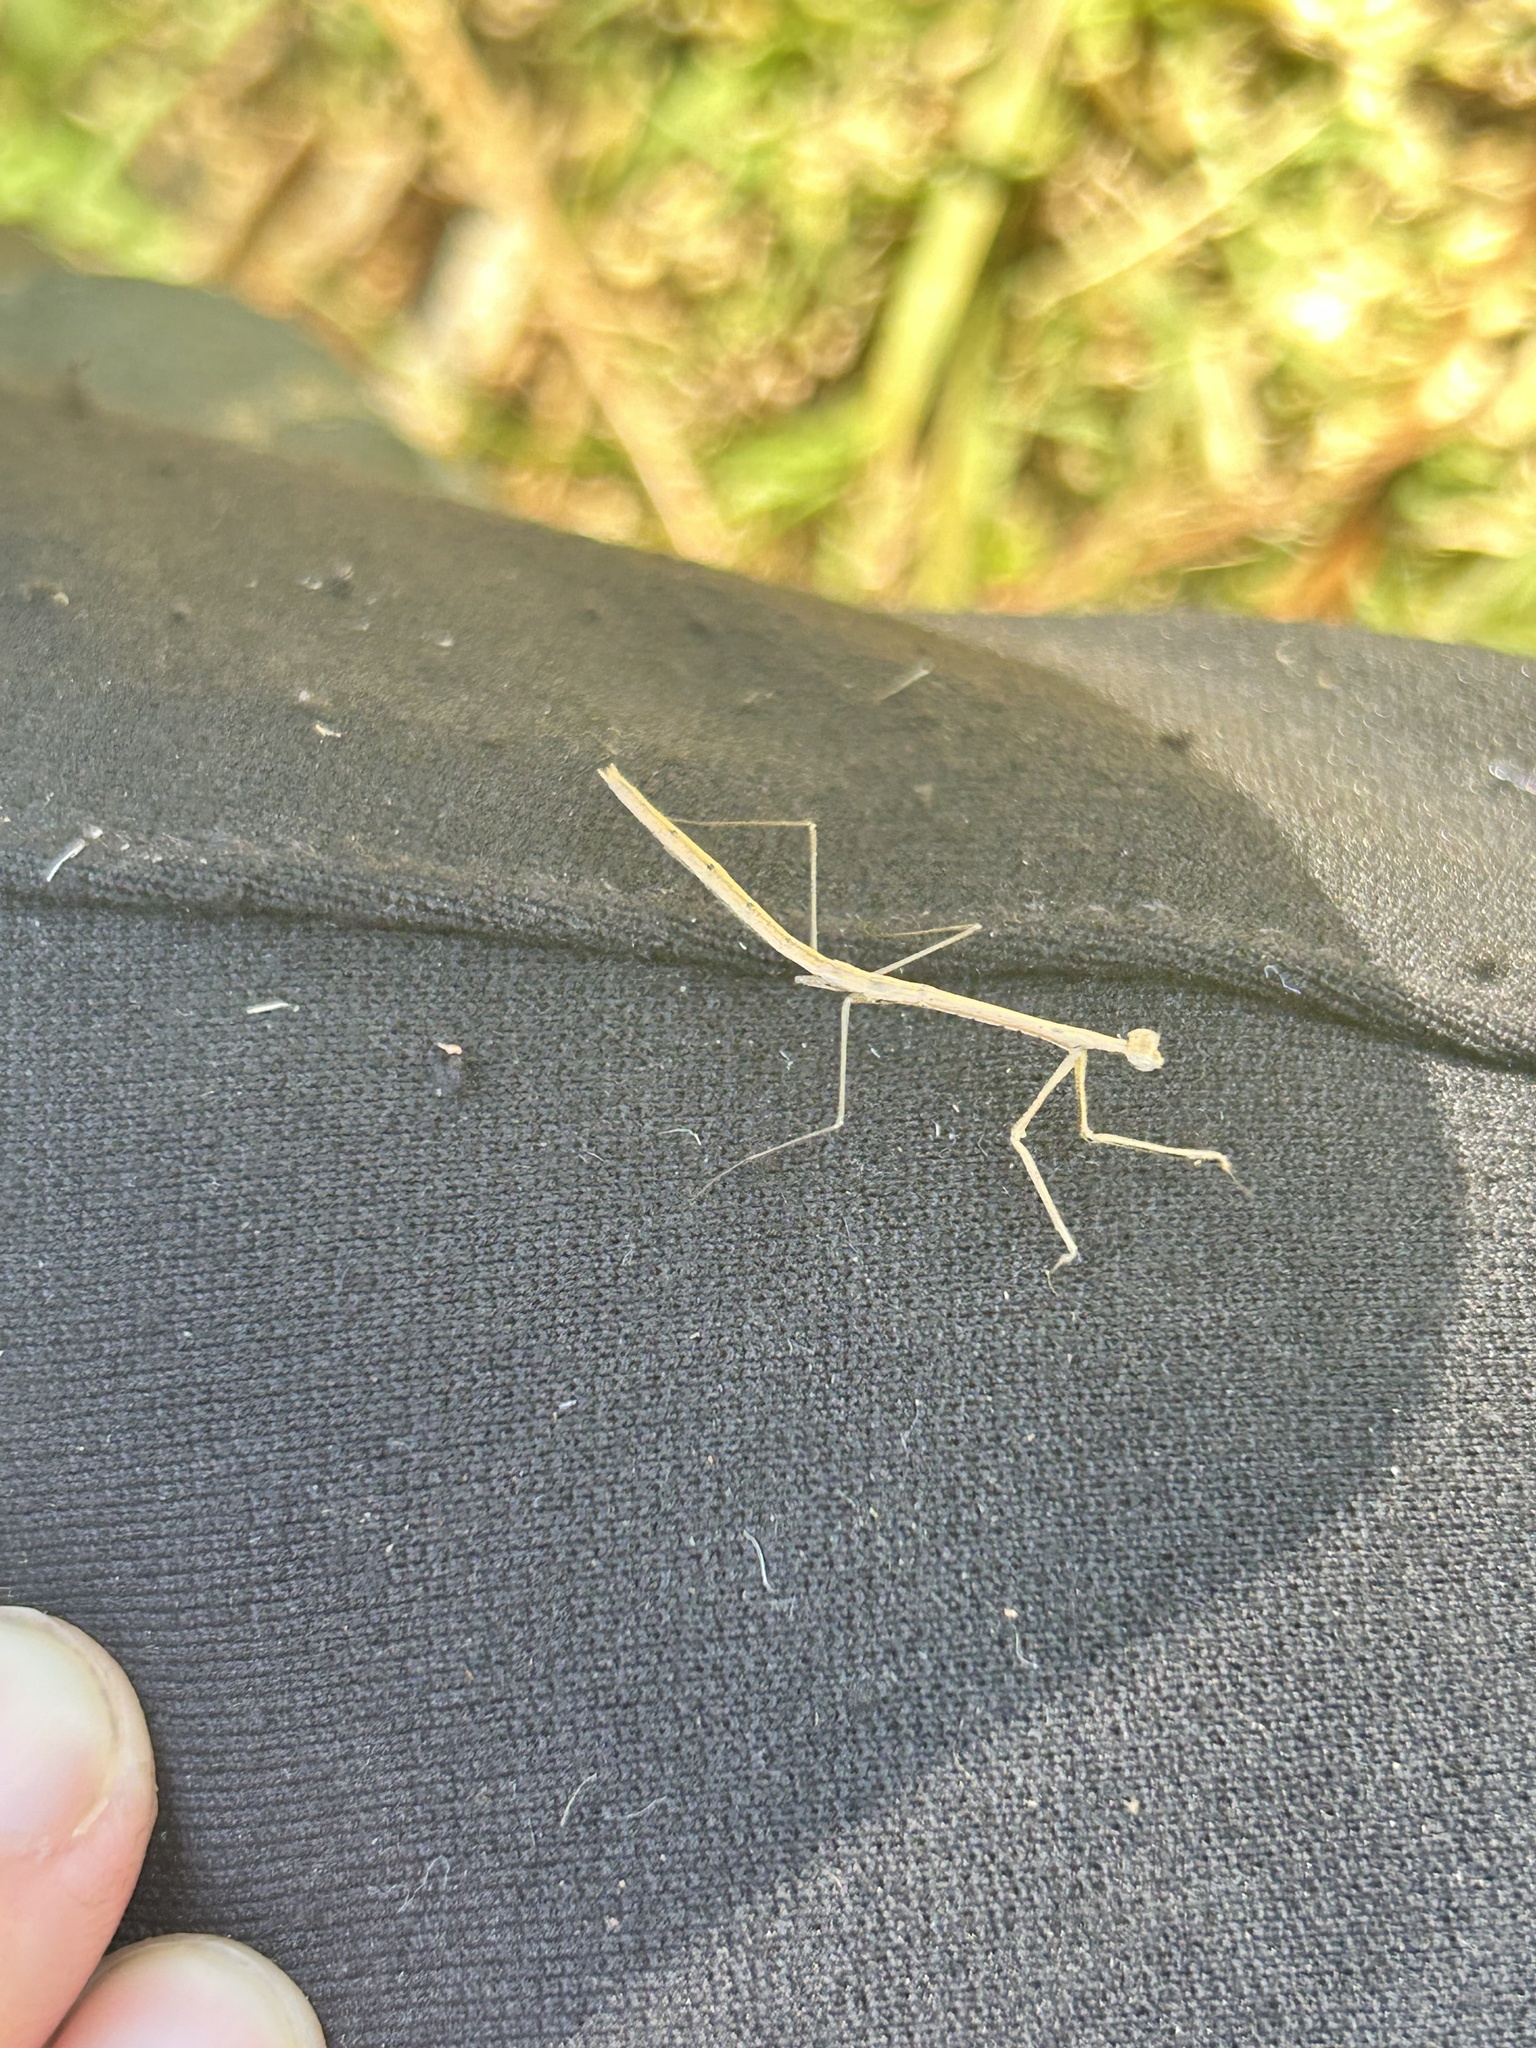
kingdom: Animalia
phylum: Arthropoda
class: Insecta
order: Mantodea
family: Thespidae
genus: Thesprotia
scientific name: Thesprotia graminis
